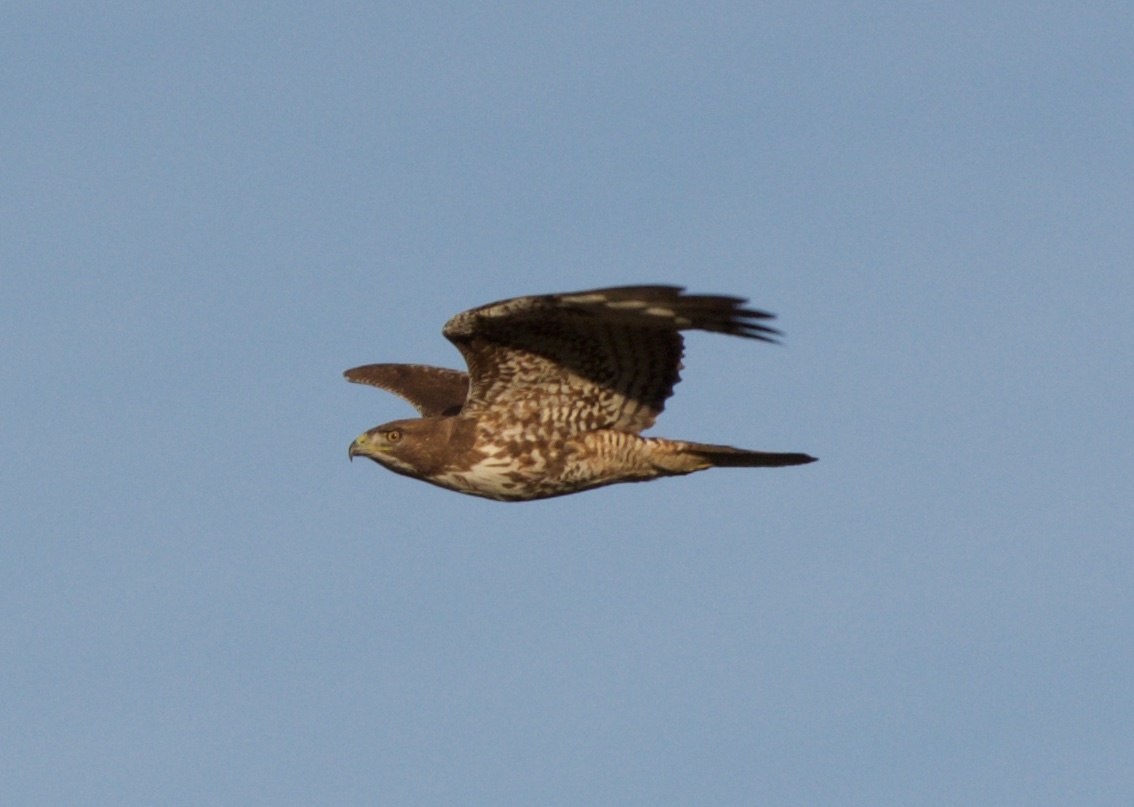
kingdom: Animalia
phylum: Chordata
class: Aves
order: Accipitriformes
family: Accipitridae
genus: Buteo
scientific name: Buteo jamaicensis
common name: Red-tailed hawk
